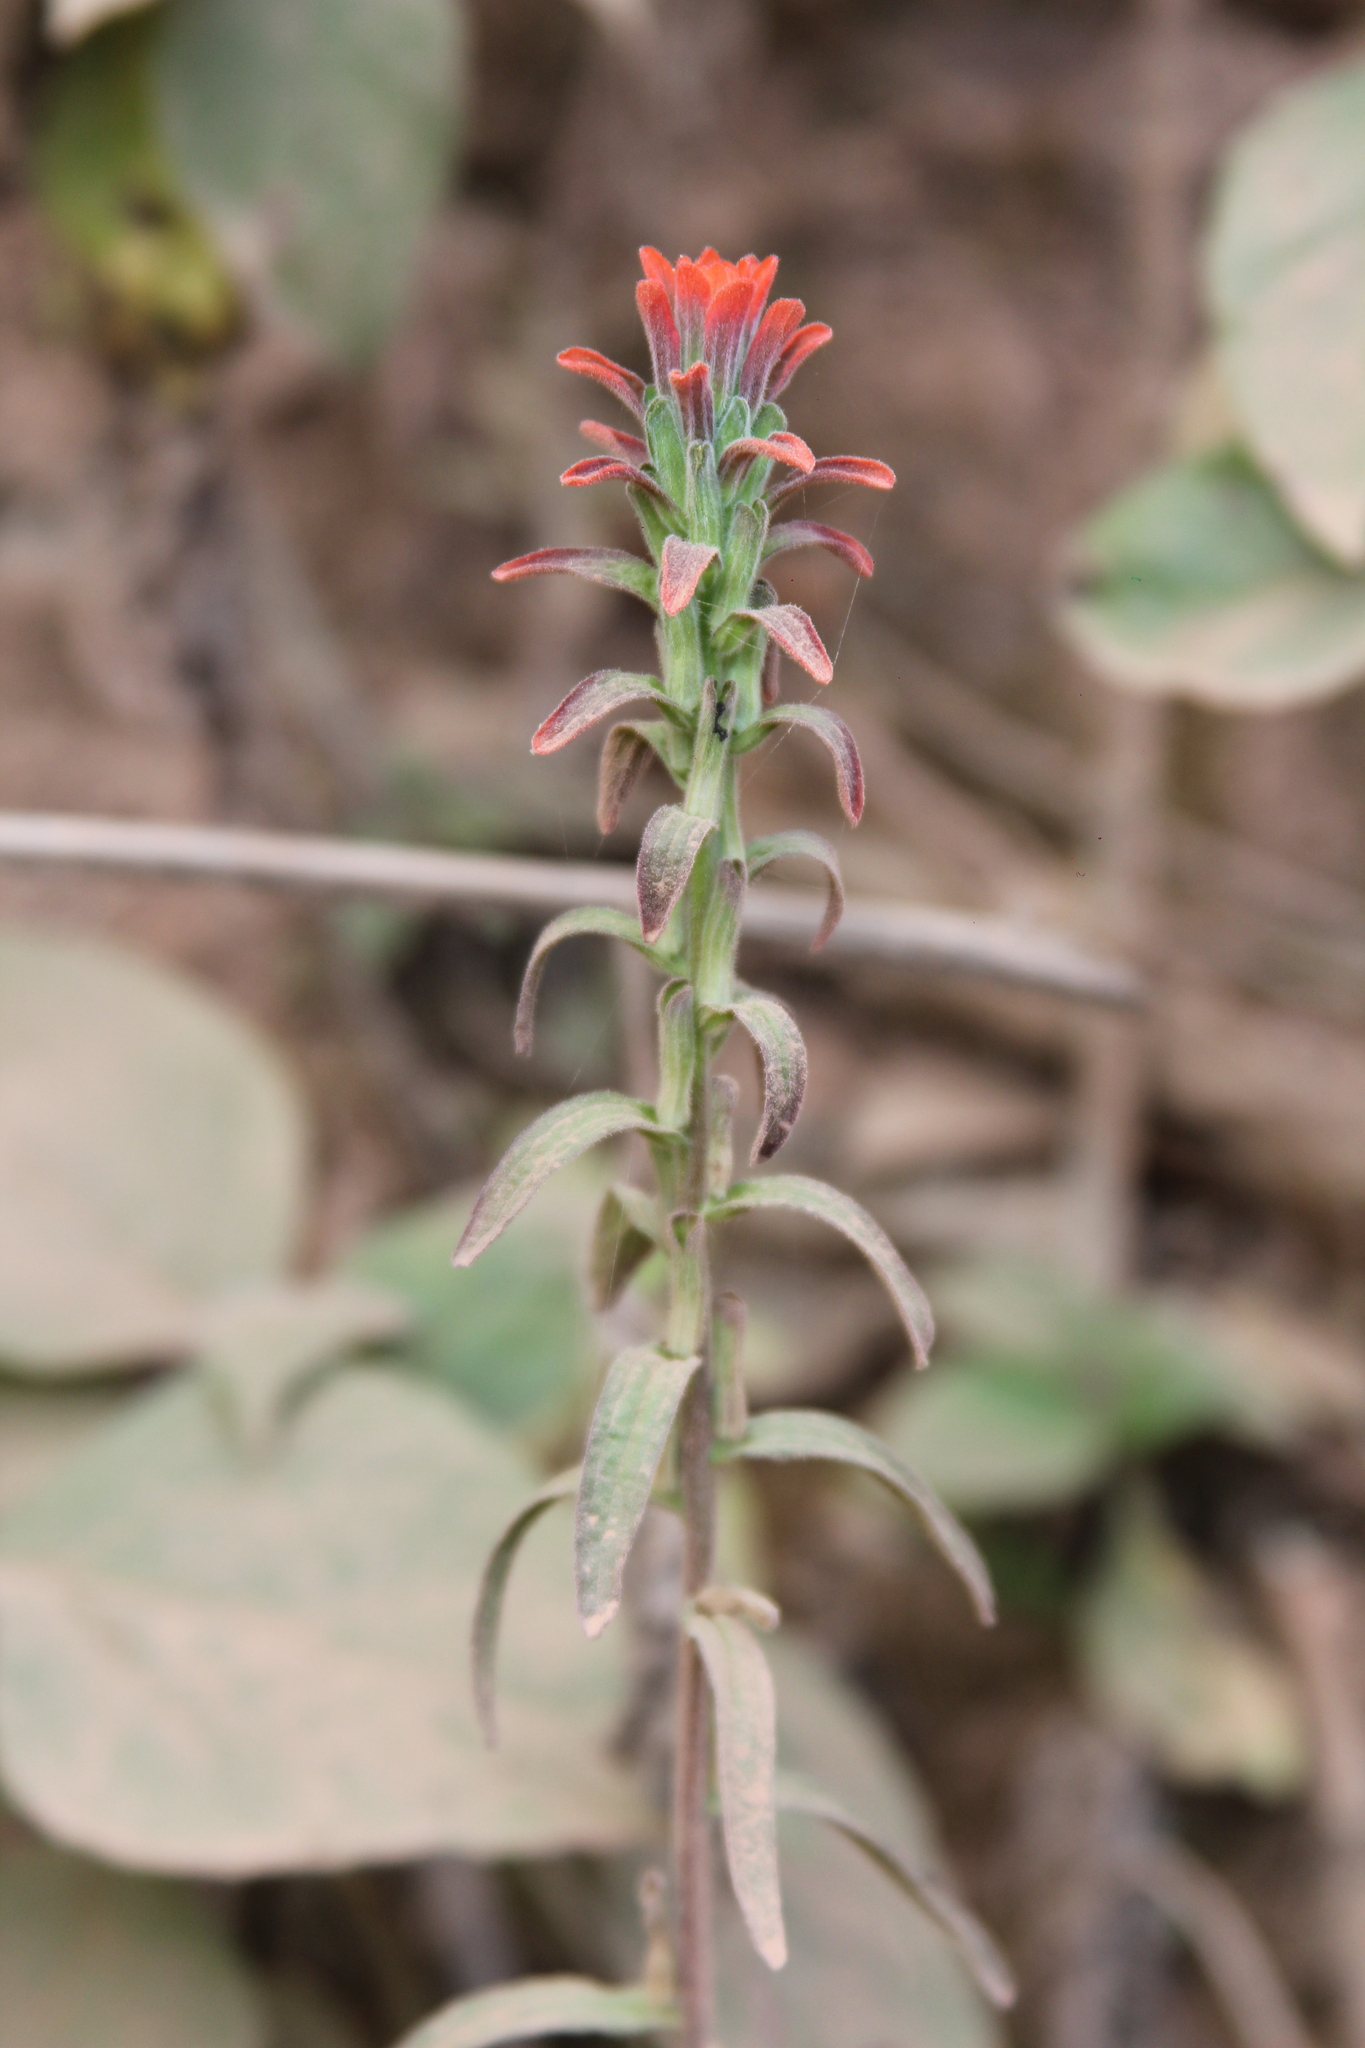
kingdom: Plantae
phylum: Tracheophyta
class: Magnoliopsida
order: Lamiales
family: Orobanchaceae
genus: Castilleja
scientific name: Castilleja arvensis
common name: Indian paintbrush
